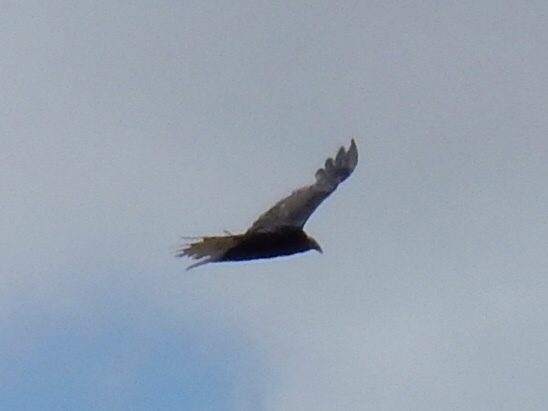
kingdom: Animalia
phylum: Chordata
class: Aves
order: Accipitriformes
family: Cathartidae
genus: Cathartes
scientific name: Cathartes aura
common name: Turkey vulture
